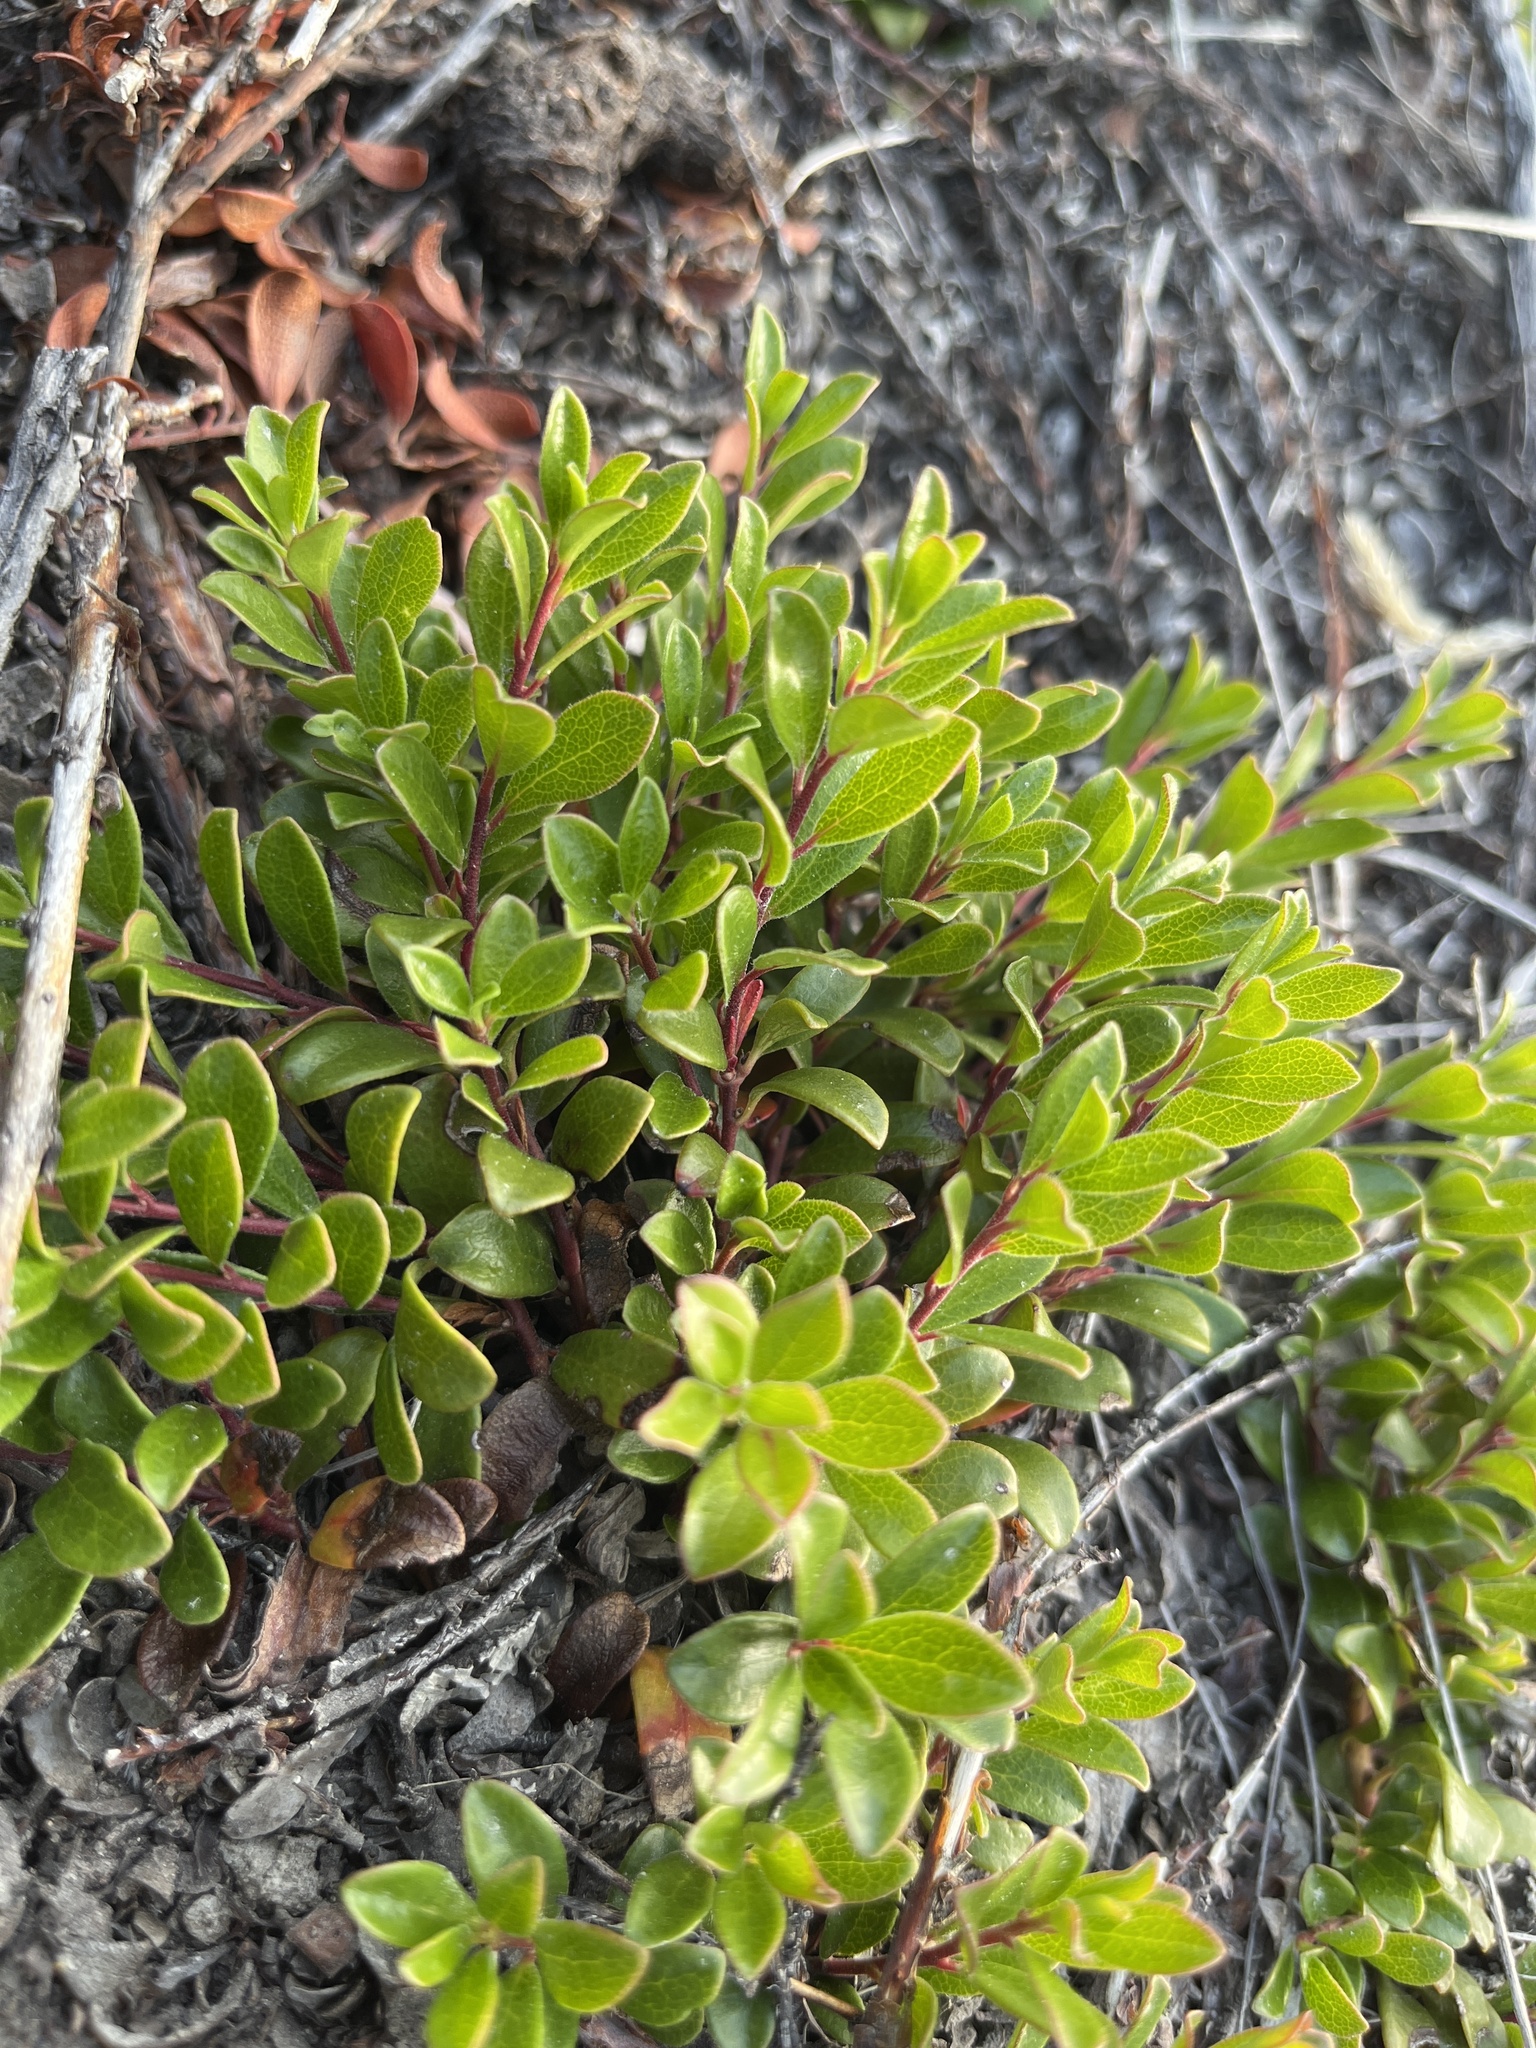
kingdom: Plantae
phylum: Tracheophyta
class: Magnoliopsida
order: Ericales
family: Ericaceae
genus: Arctostaphylos
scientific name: Arctostaphylos uva-ursi
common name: Bearberry
